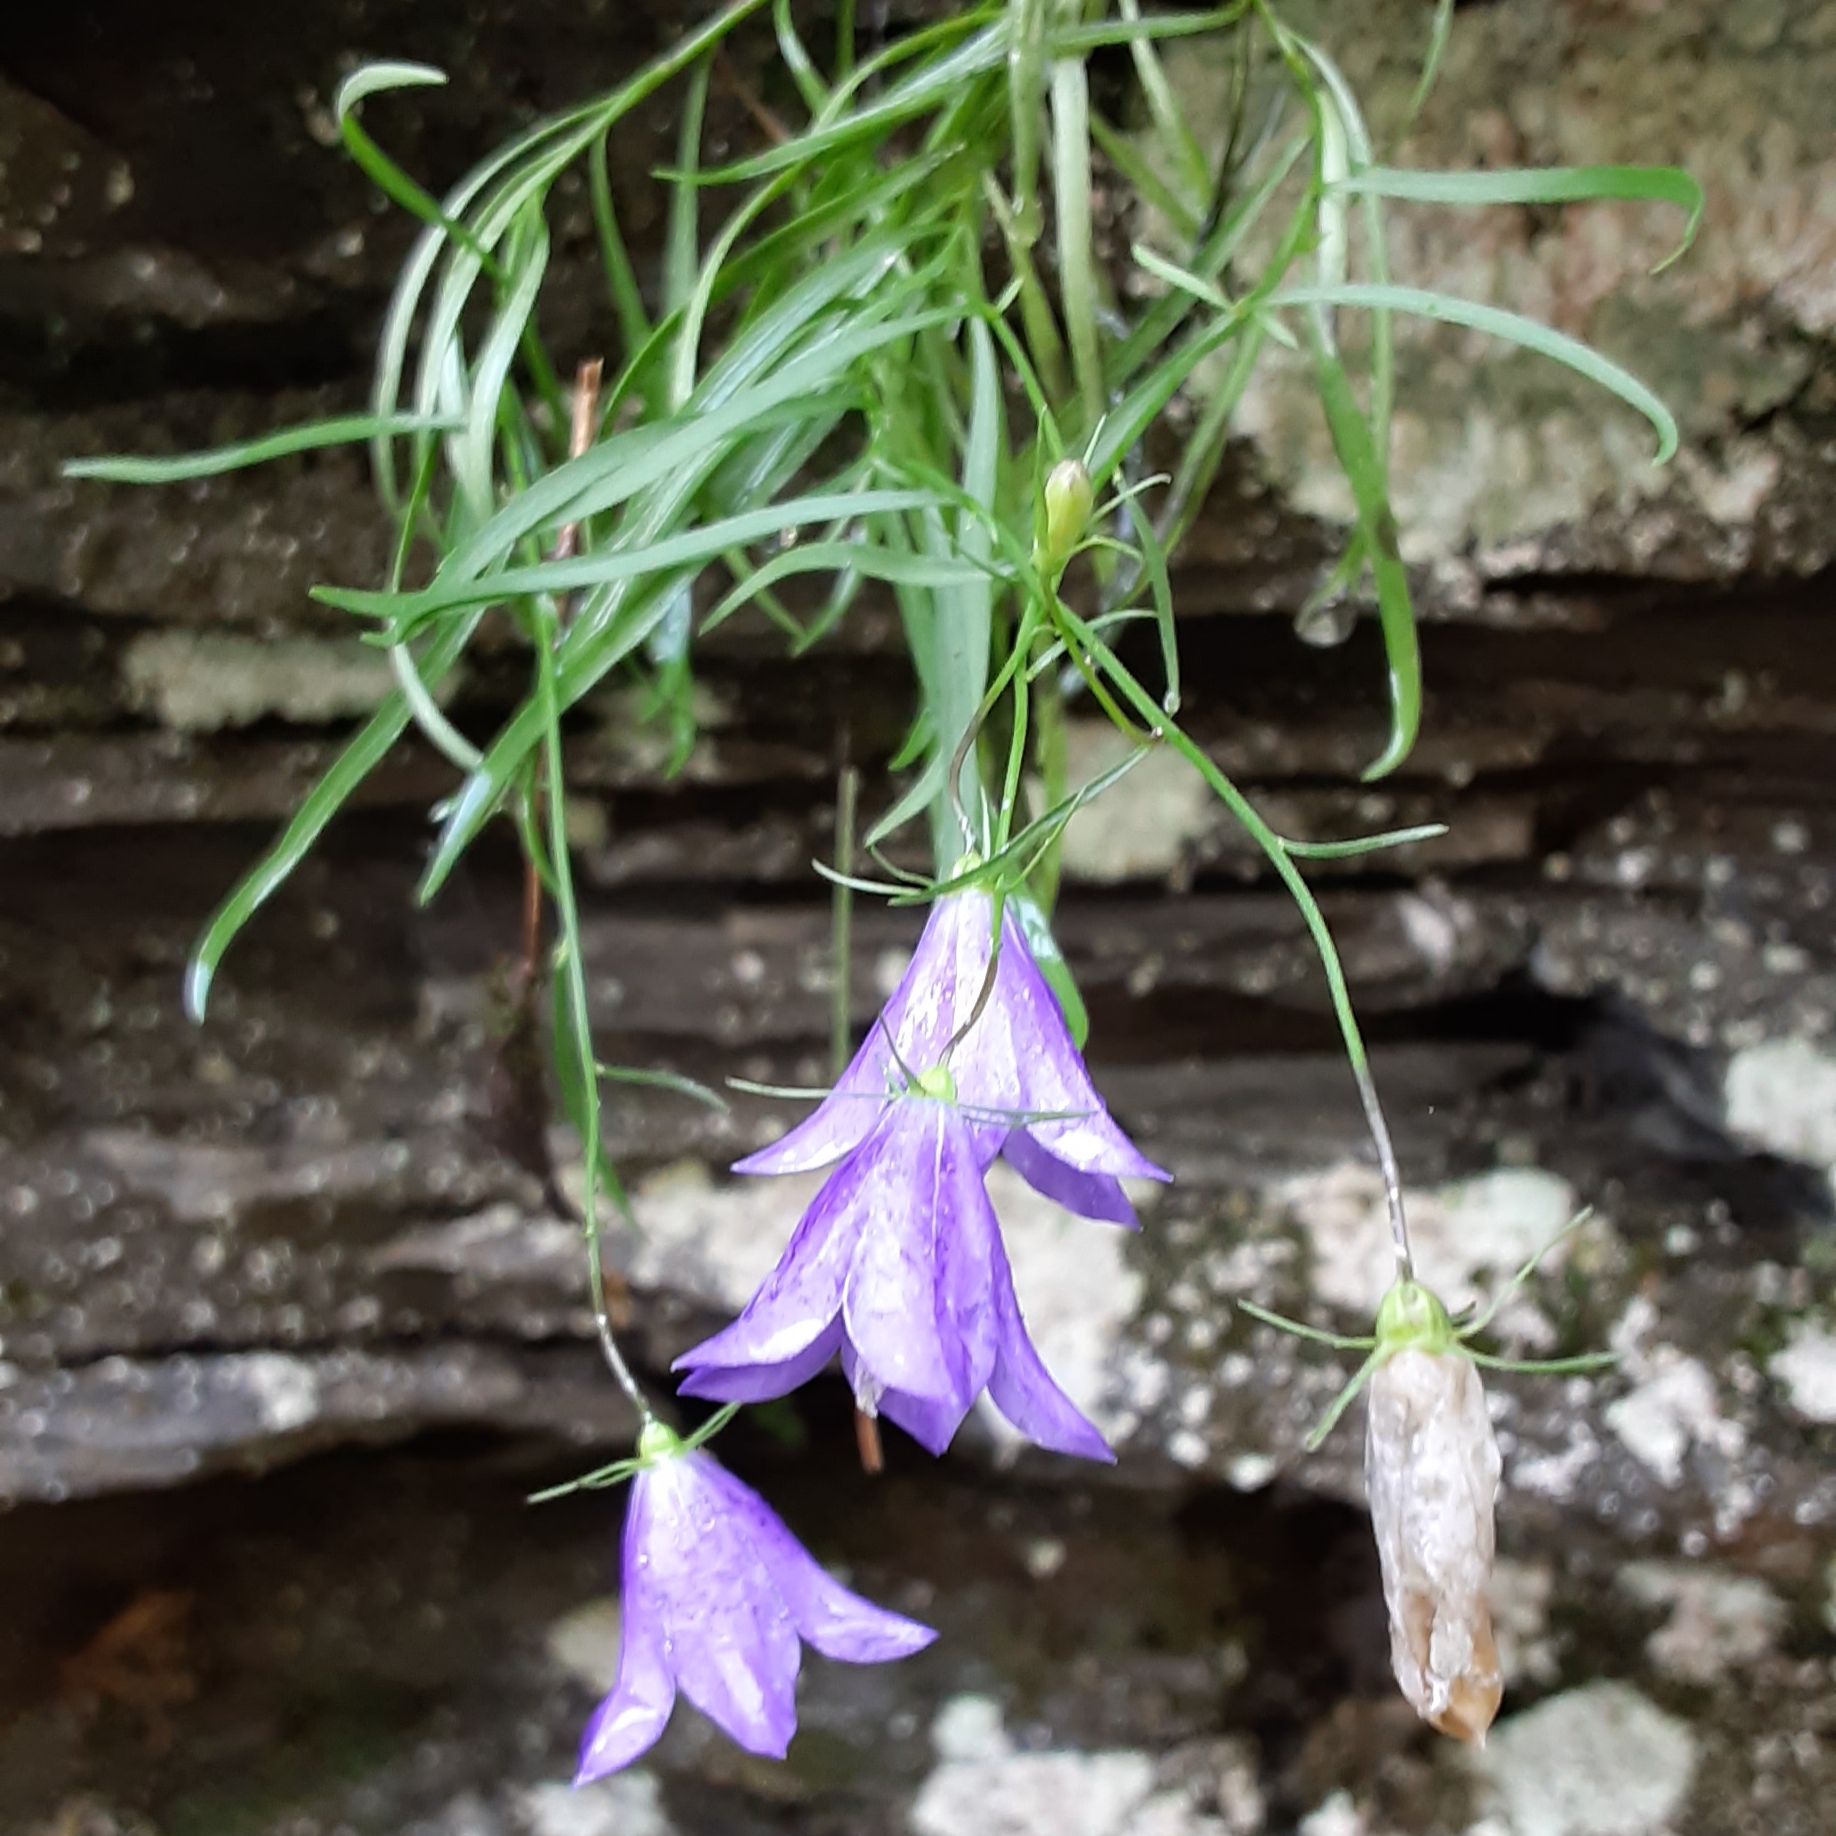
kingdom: Plantae
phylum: Tracheophyta
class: Magnoliopsida
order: Asterales
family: Campanulaceae
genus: Campanula
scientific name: Campanula intercedens
